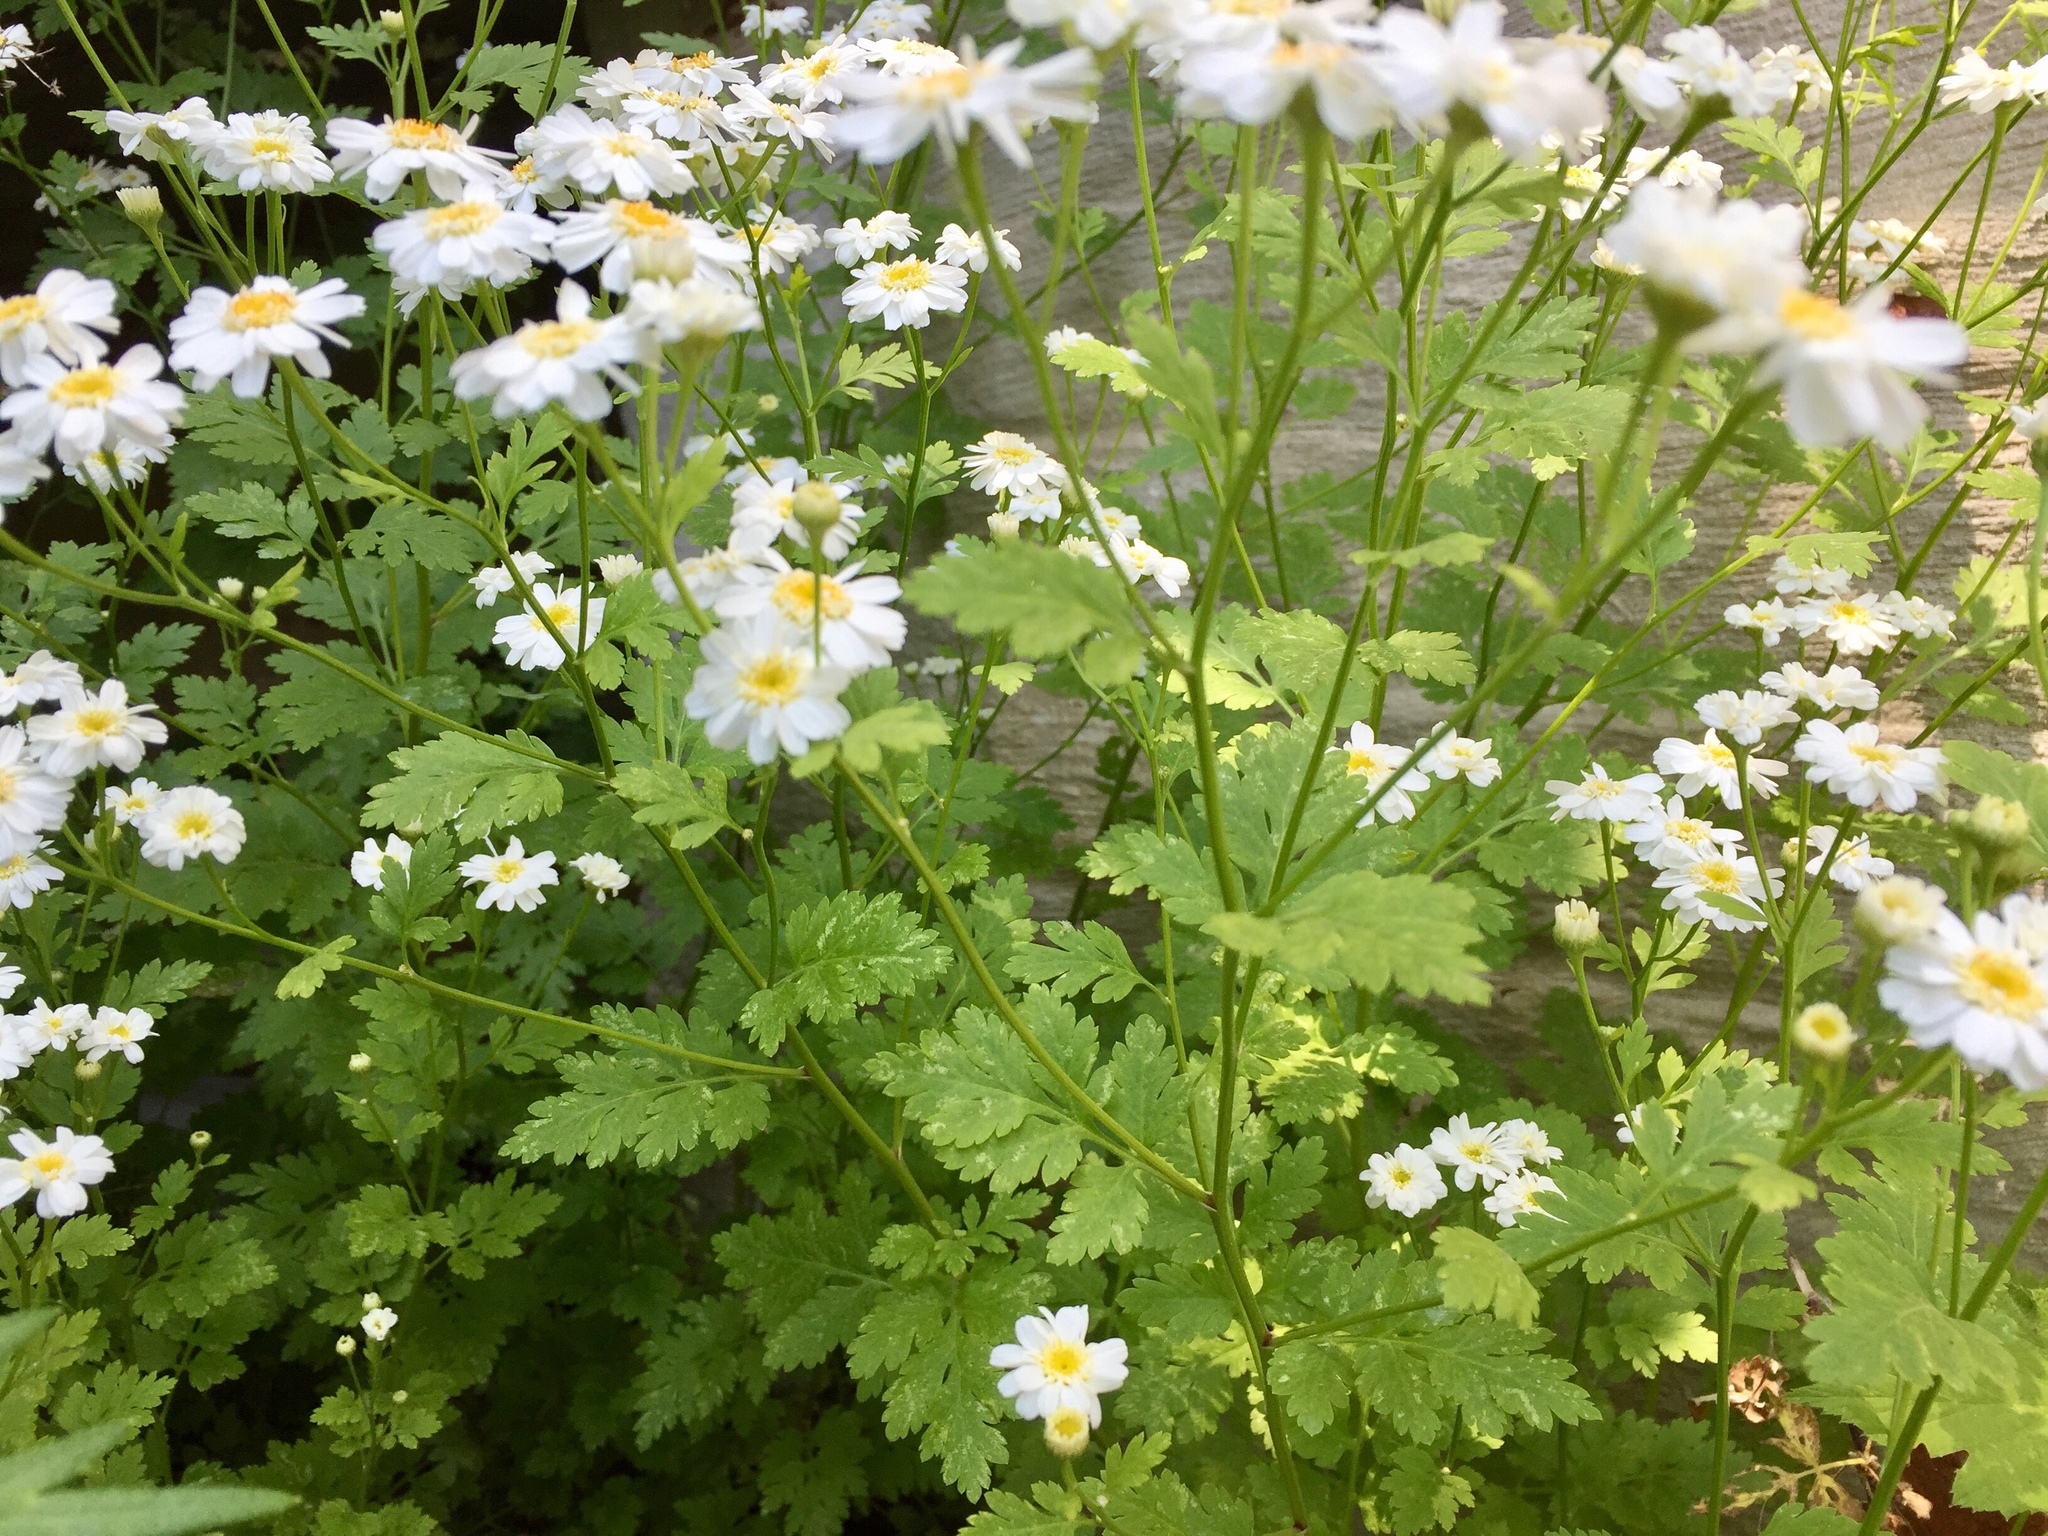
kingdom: Plantae
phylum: Tracheophyta
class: Magnoliopsida
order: Asterales
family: Asteraceae
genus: Tanacetum
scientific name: Tanacetum parthenium
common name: Feverfew
